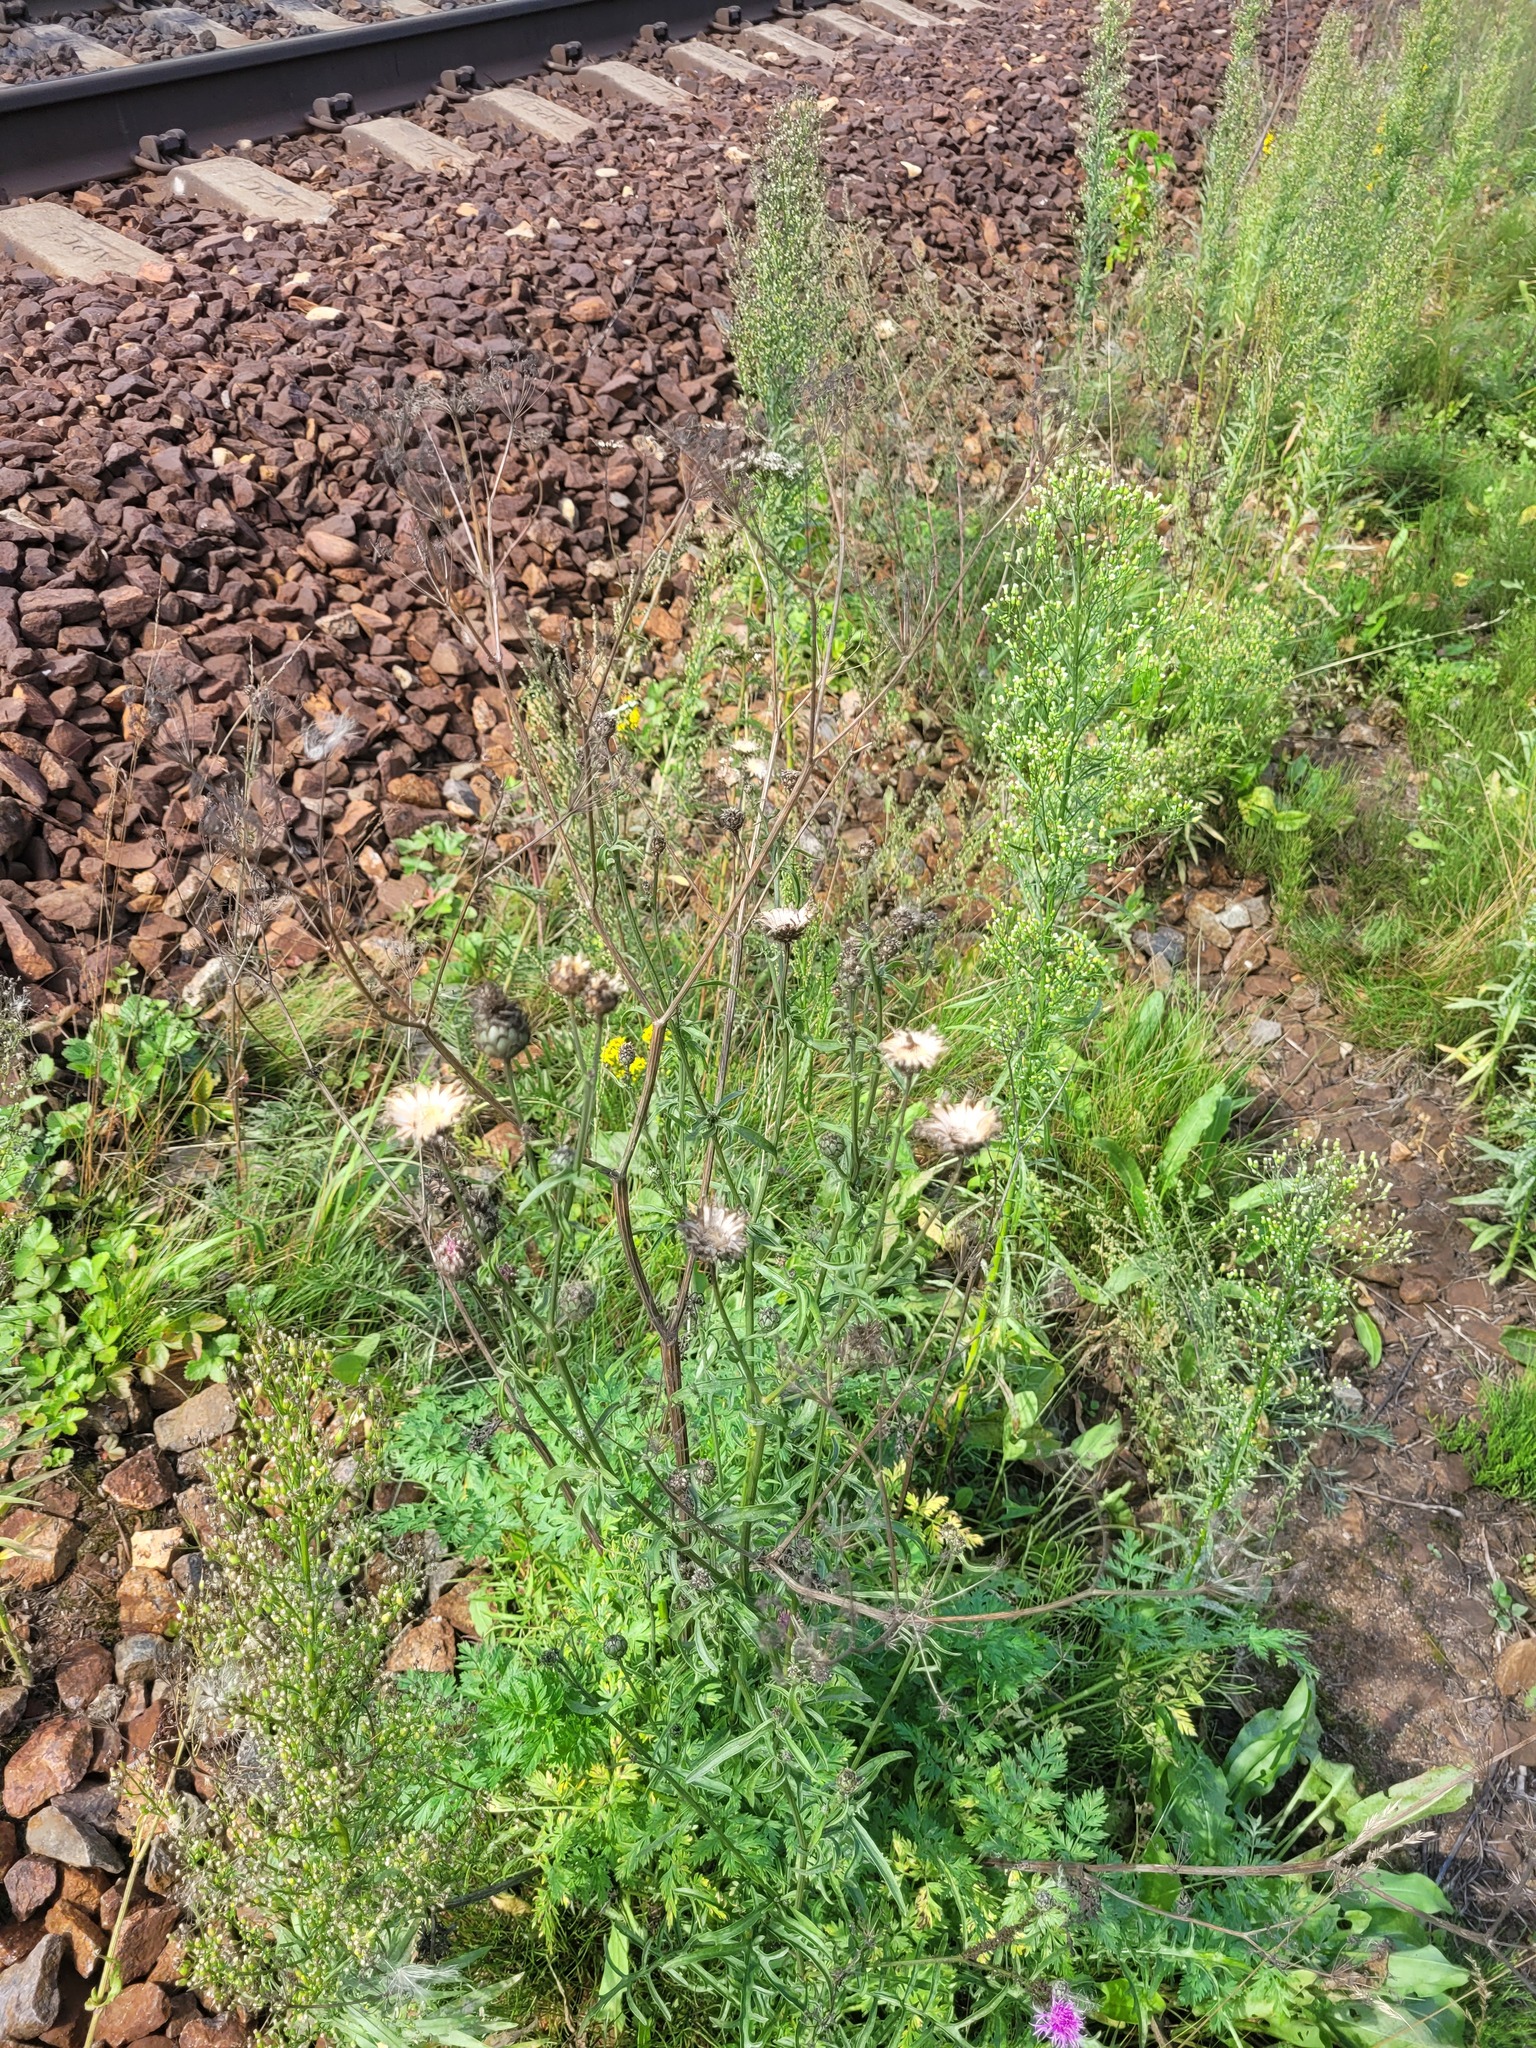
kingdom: Plantae
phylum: Tracheophyta
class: Magnoliopsida
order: Asterales
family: Asteraceae
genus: Centaurea
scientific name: Centaurea scabiosa
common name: Greater knapweed
